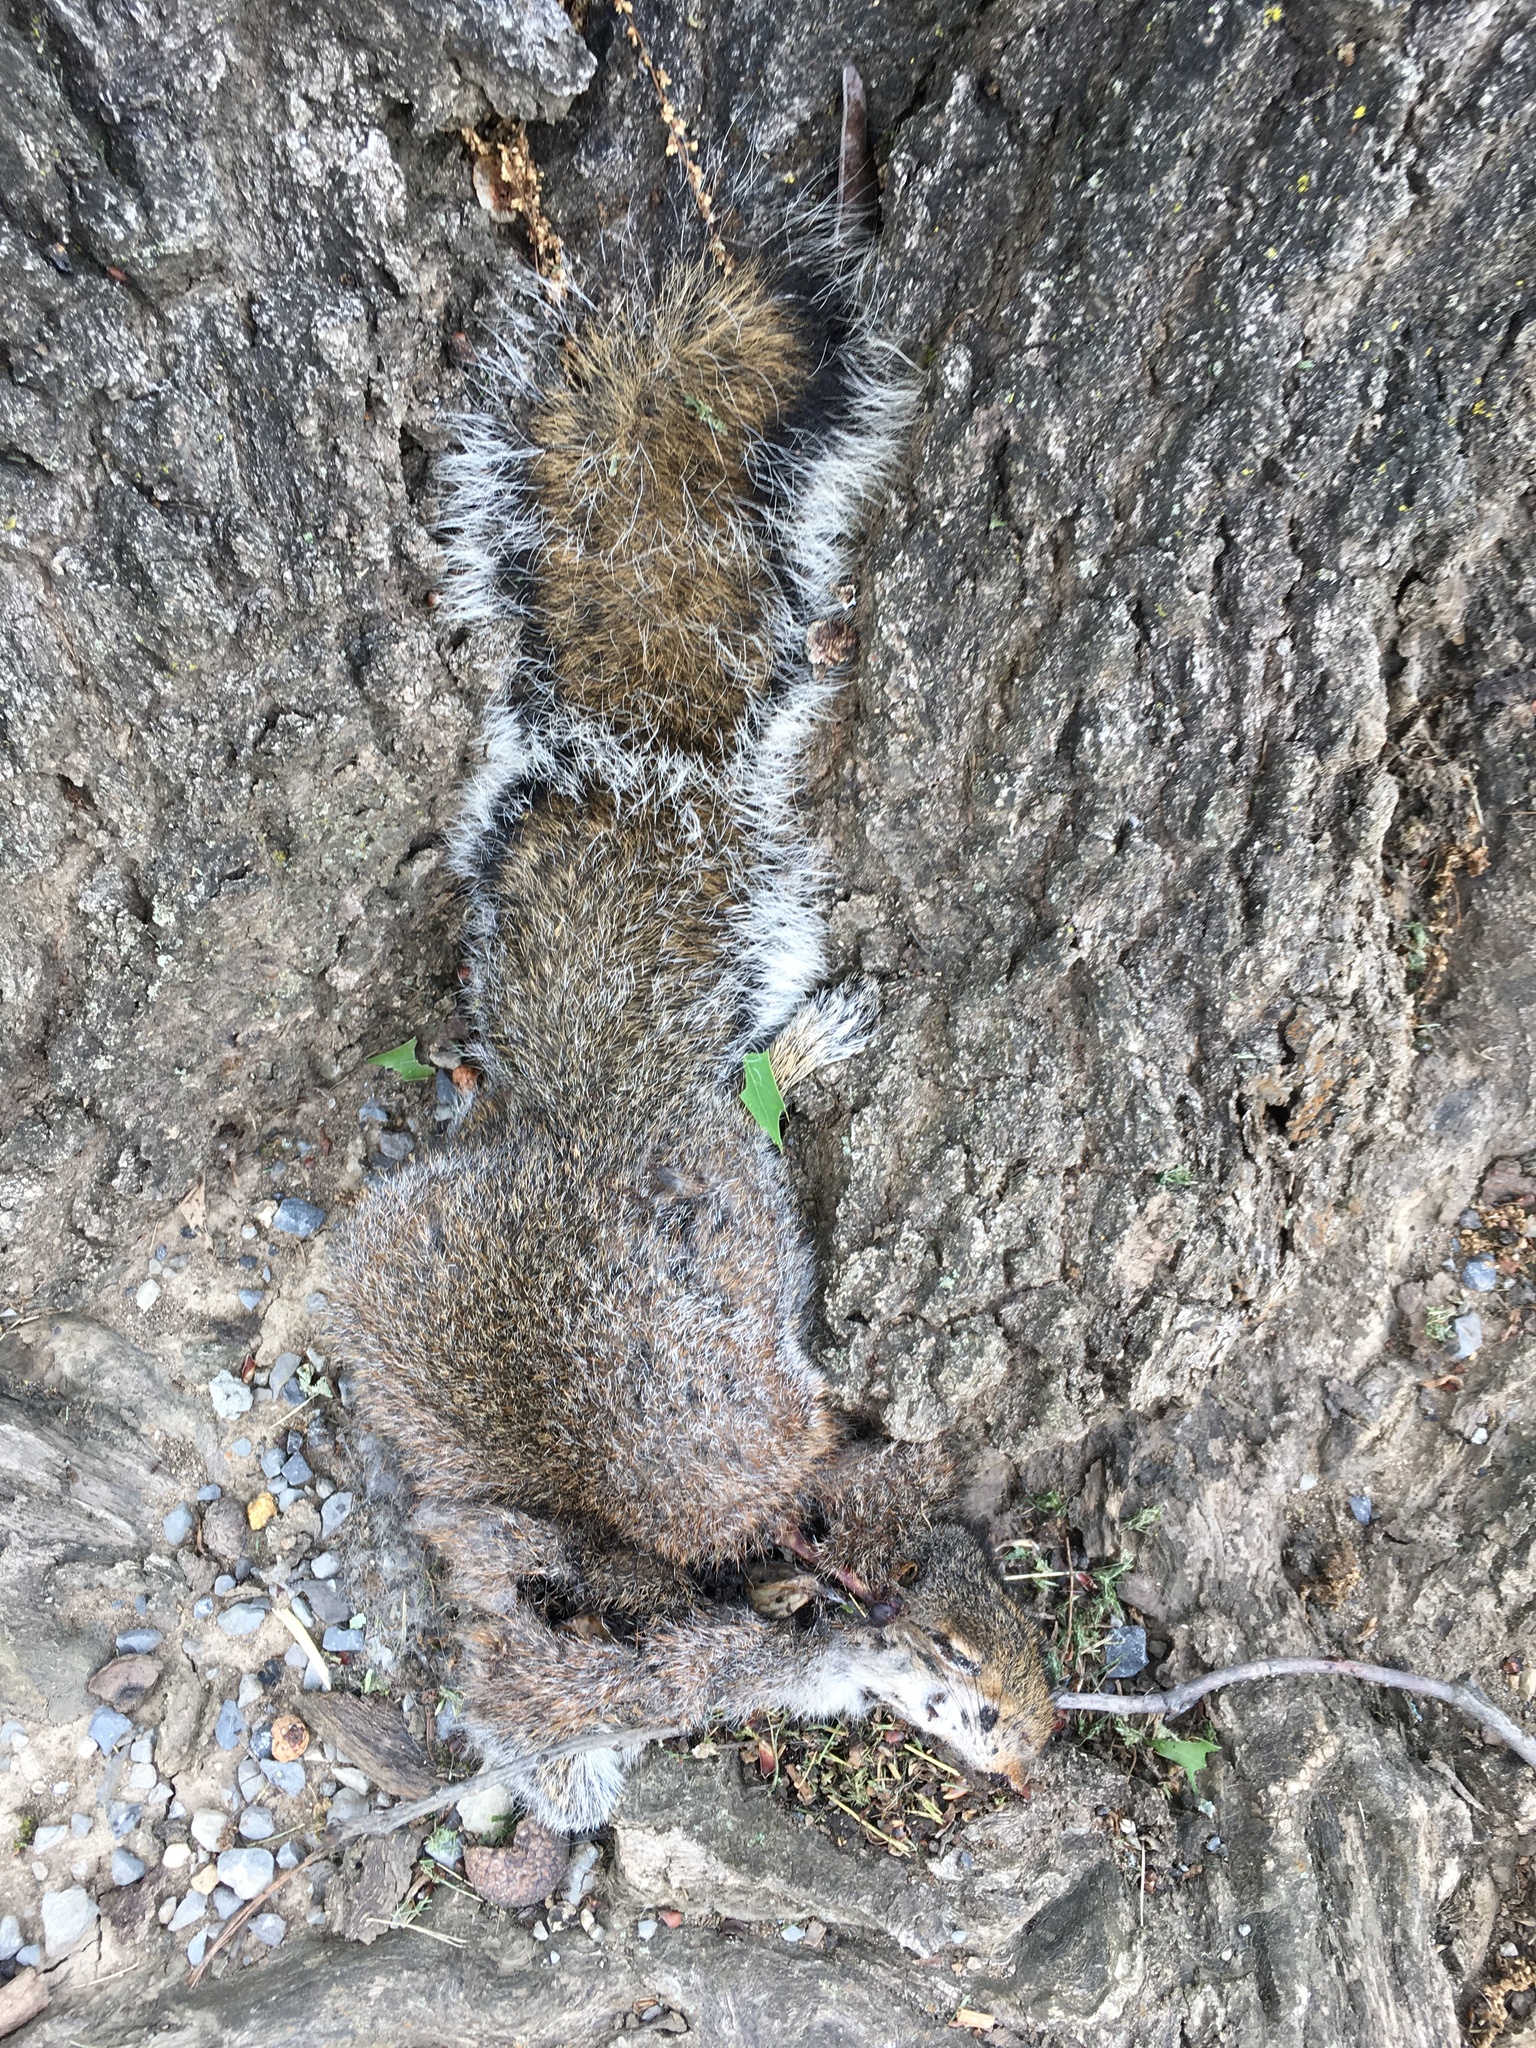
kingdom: Animalia
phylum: Chordata
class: Mammalia
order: Rodentia
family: Sciuridae
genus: Sciurus
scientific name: Sciurus carolinensis
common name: Eastern gray squirrel
